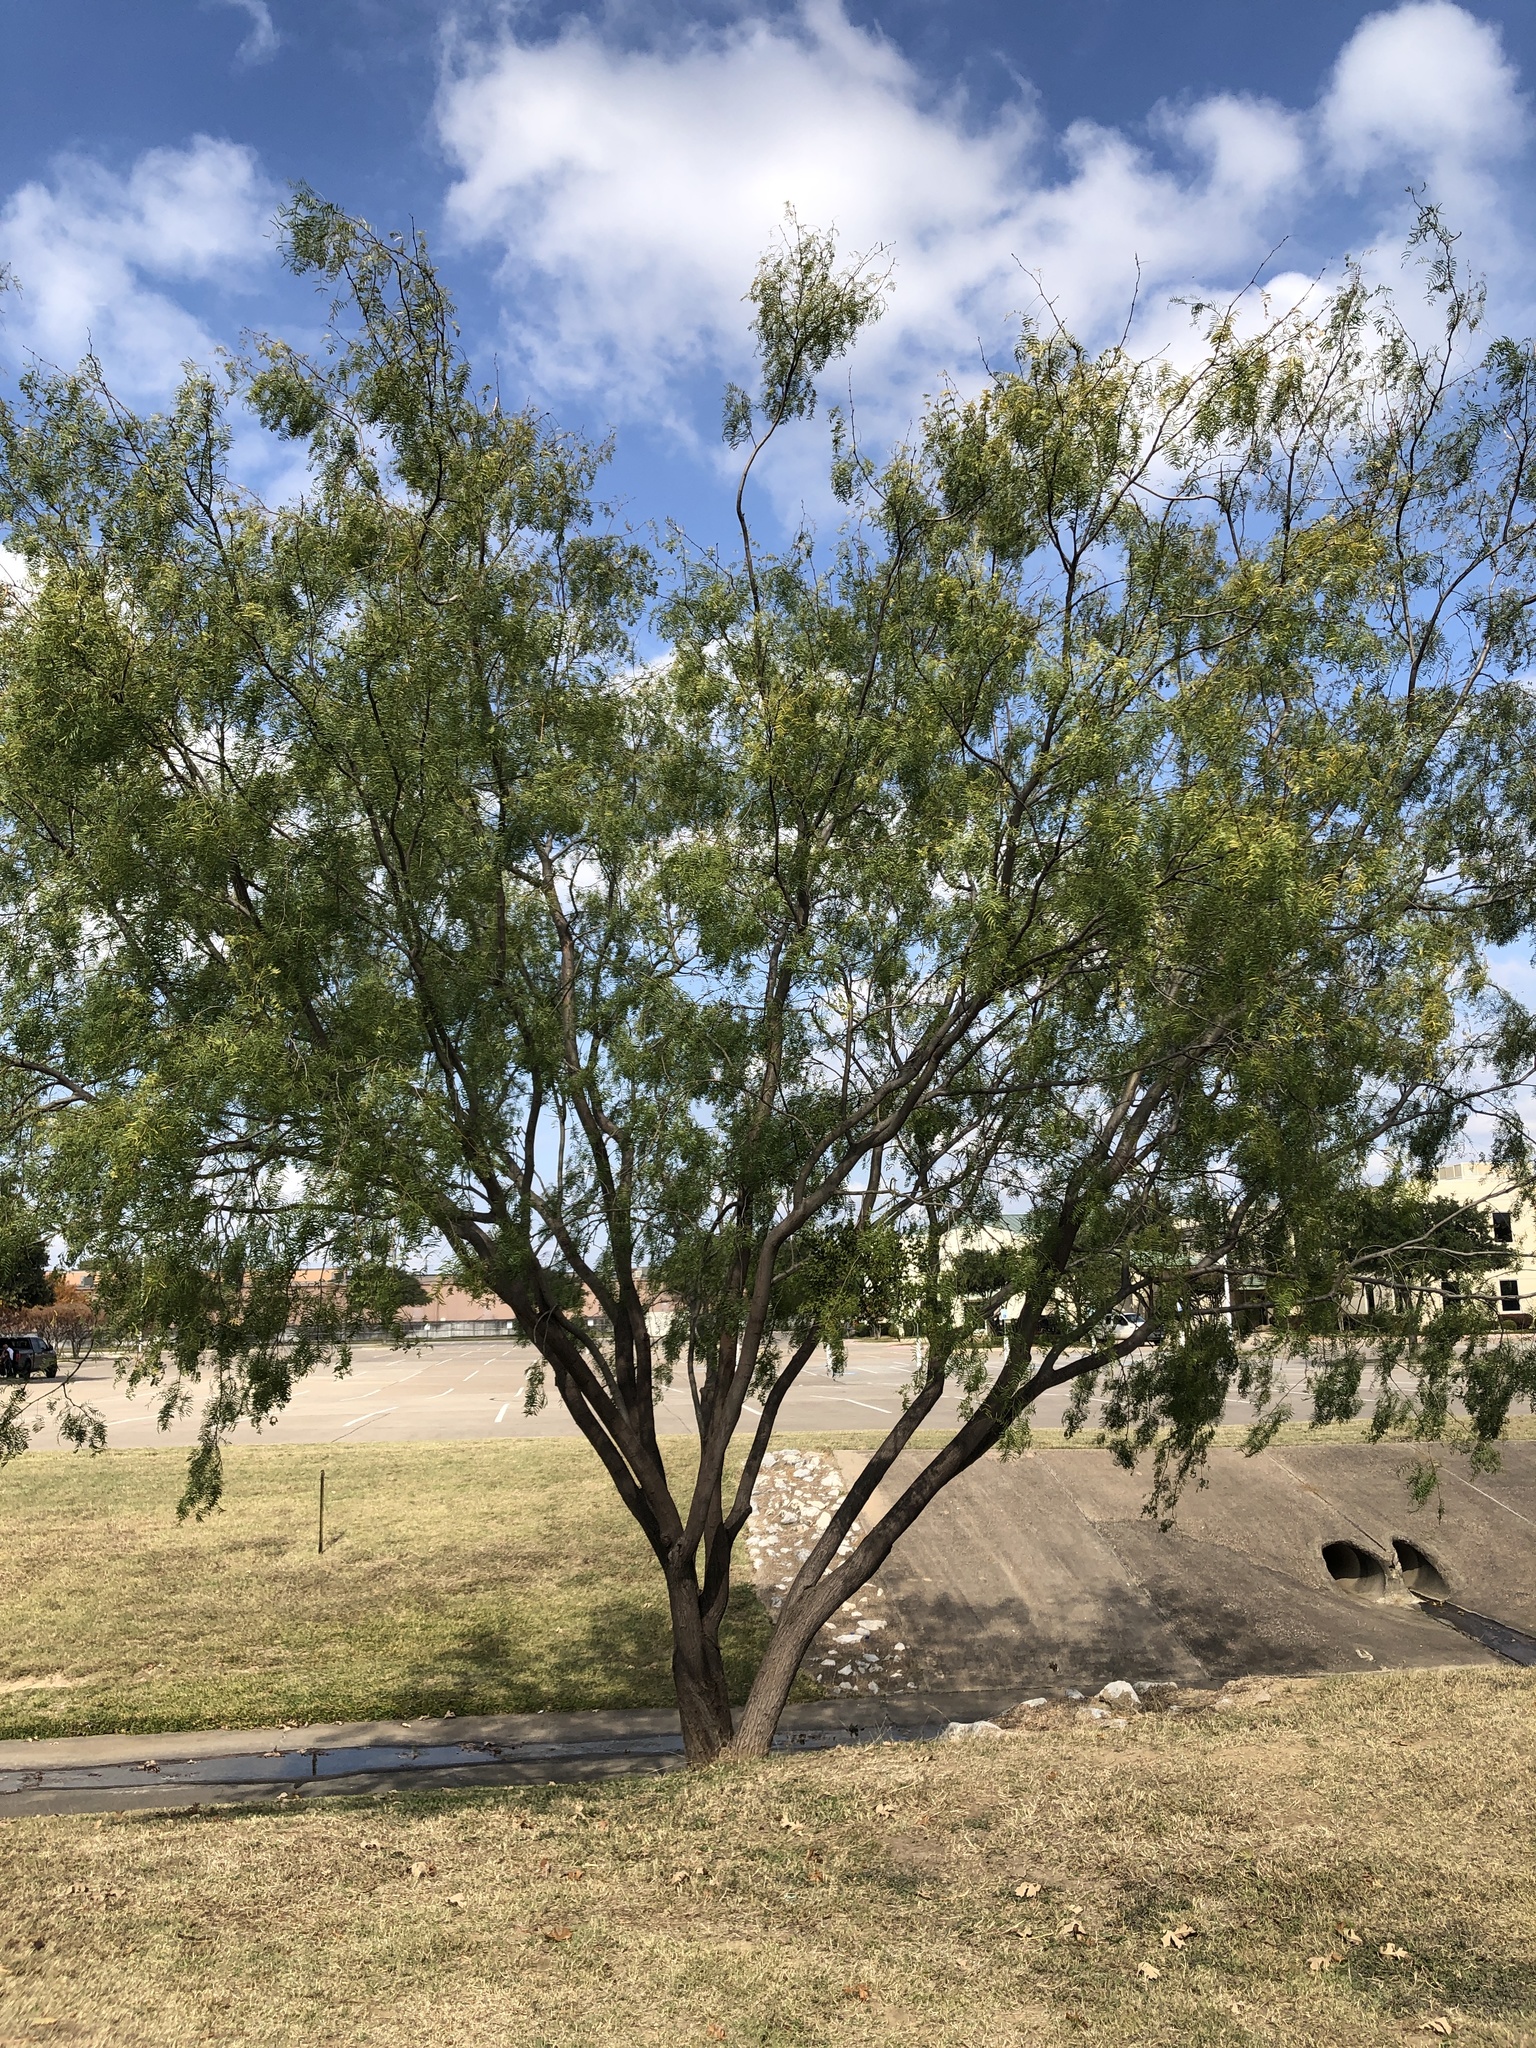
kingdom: Plantae
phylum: Tracheophyta
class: Magnoliopsida
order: Fabales
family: Fabaceae
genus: Prosopis
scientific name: Prosopis glandulosa
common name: Honey mesquite
